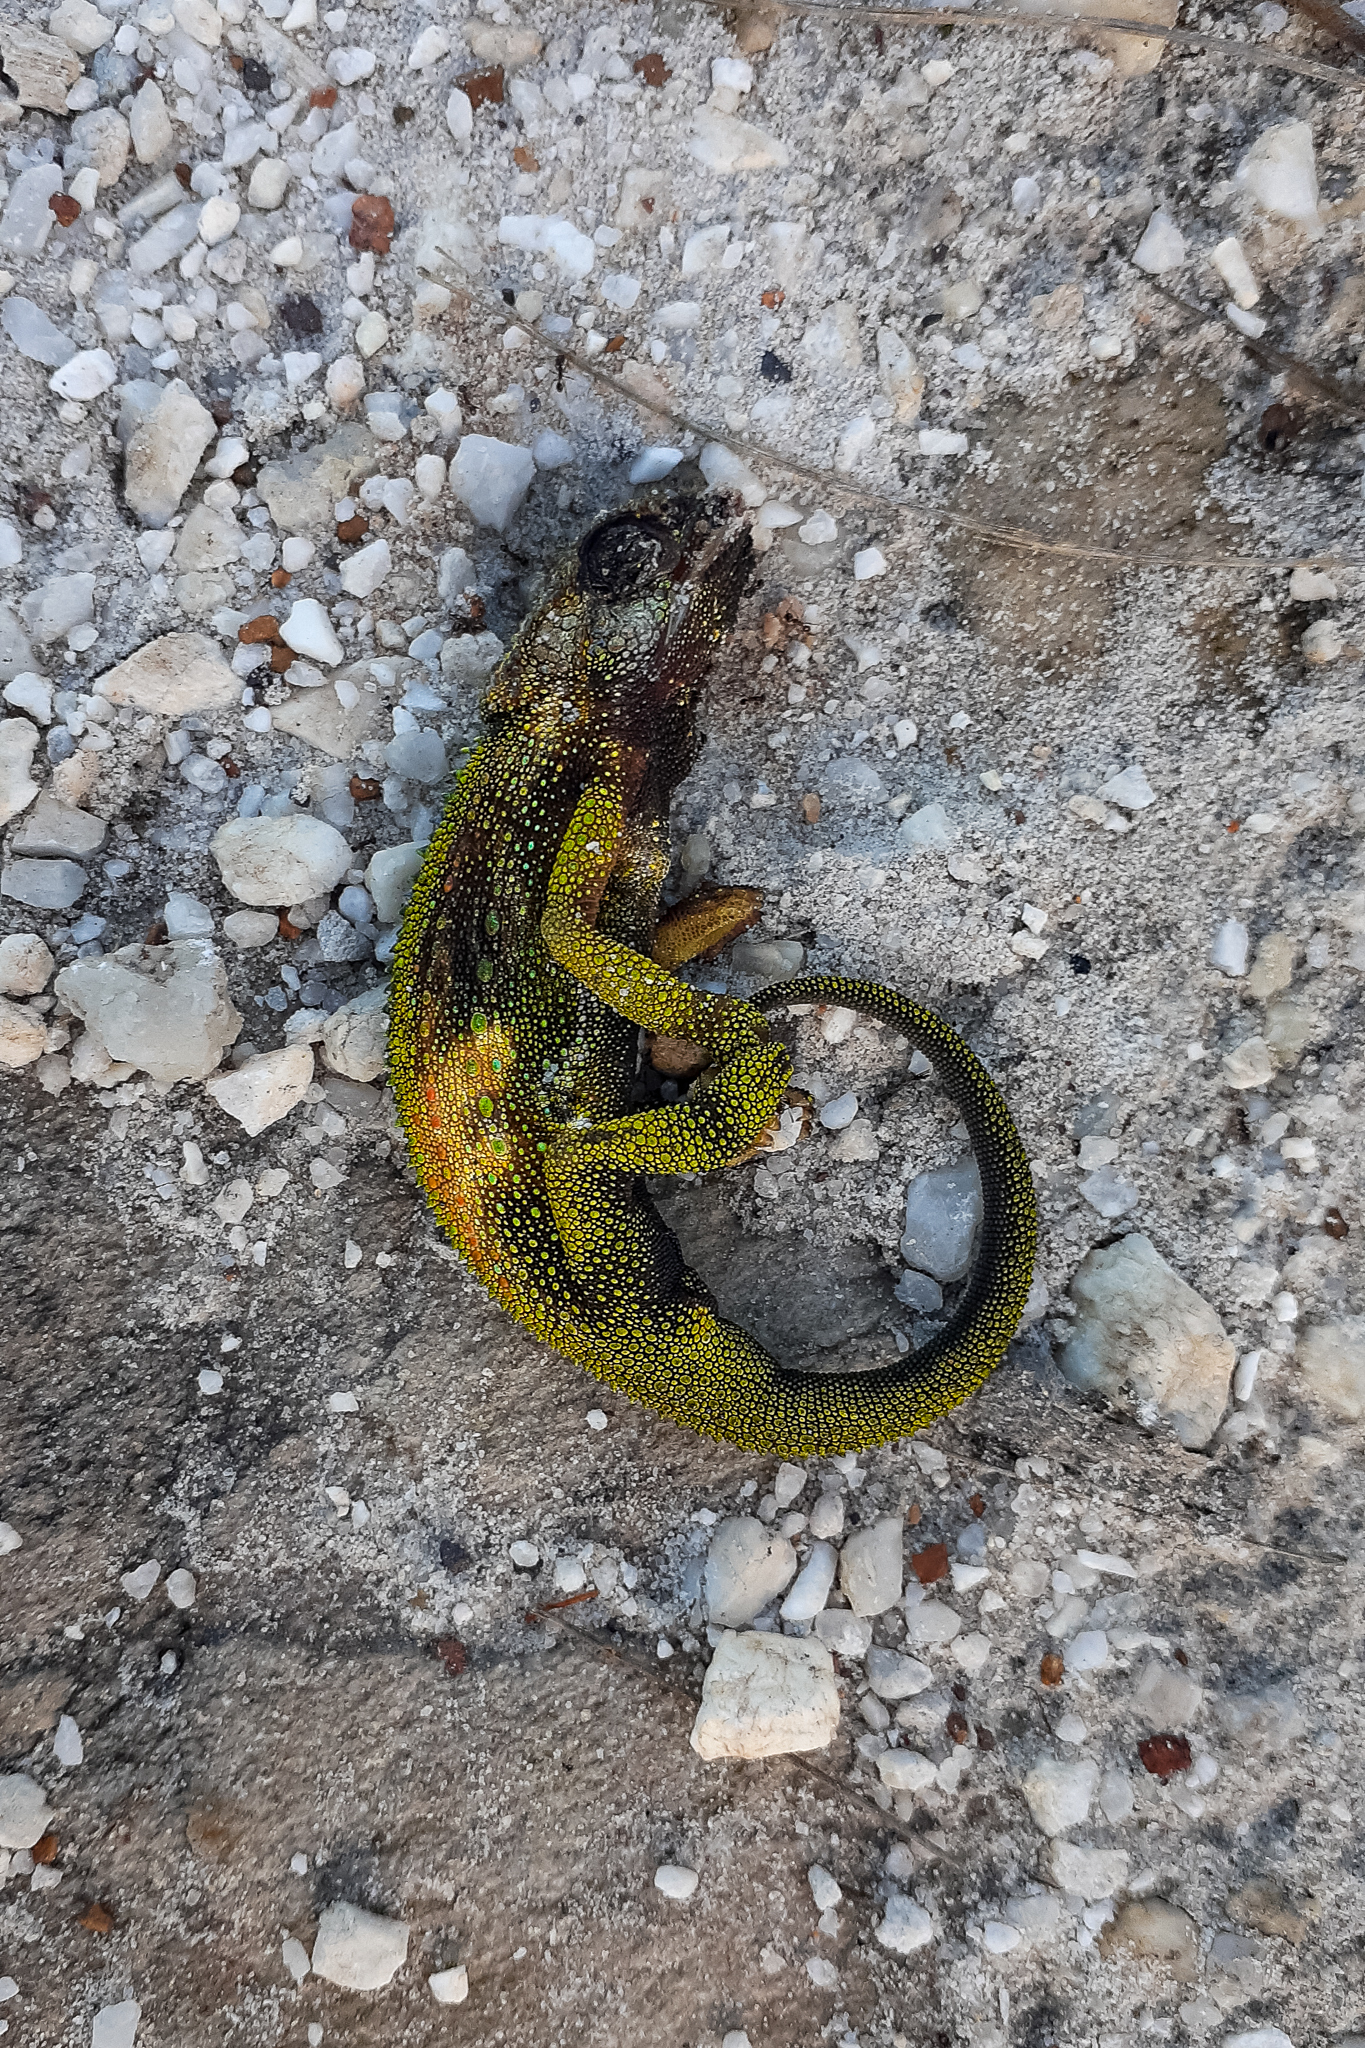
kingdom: Animalia
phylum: Chordata
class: Squamata
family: Chamaeleonidae
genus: Bradypodion
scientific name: Bradypodion pumilum
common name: Cape dwarf chameleon
